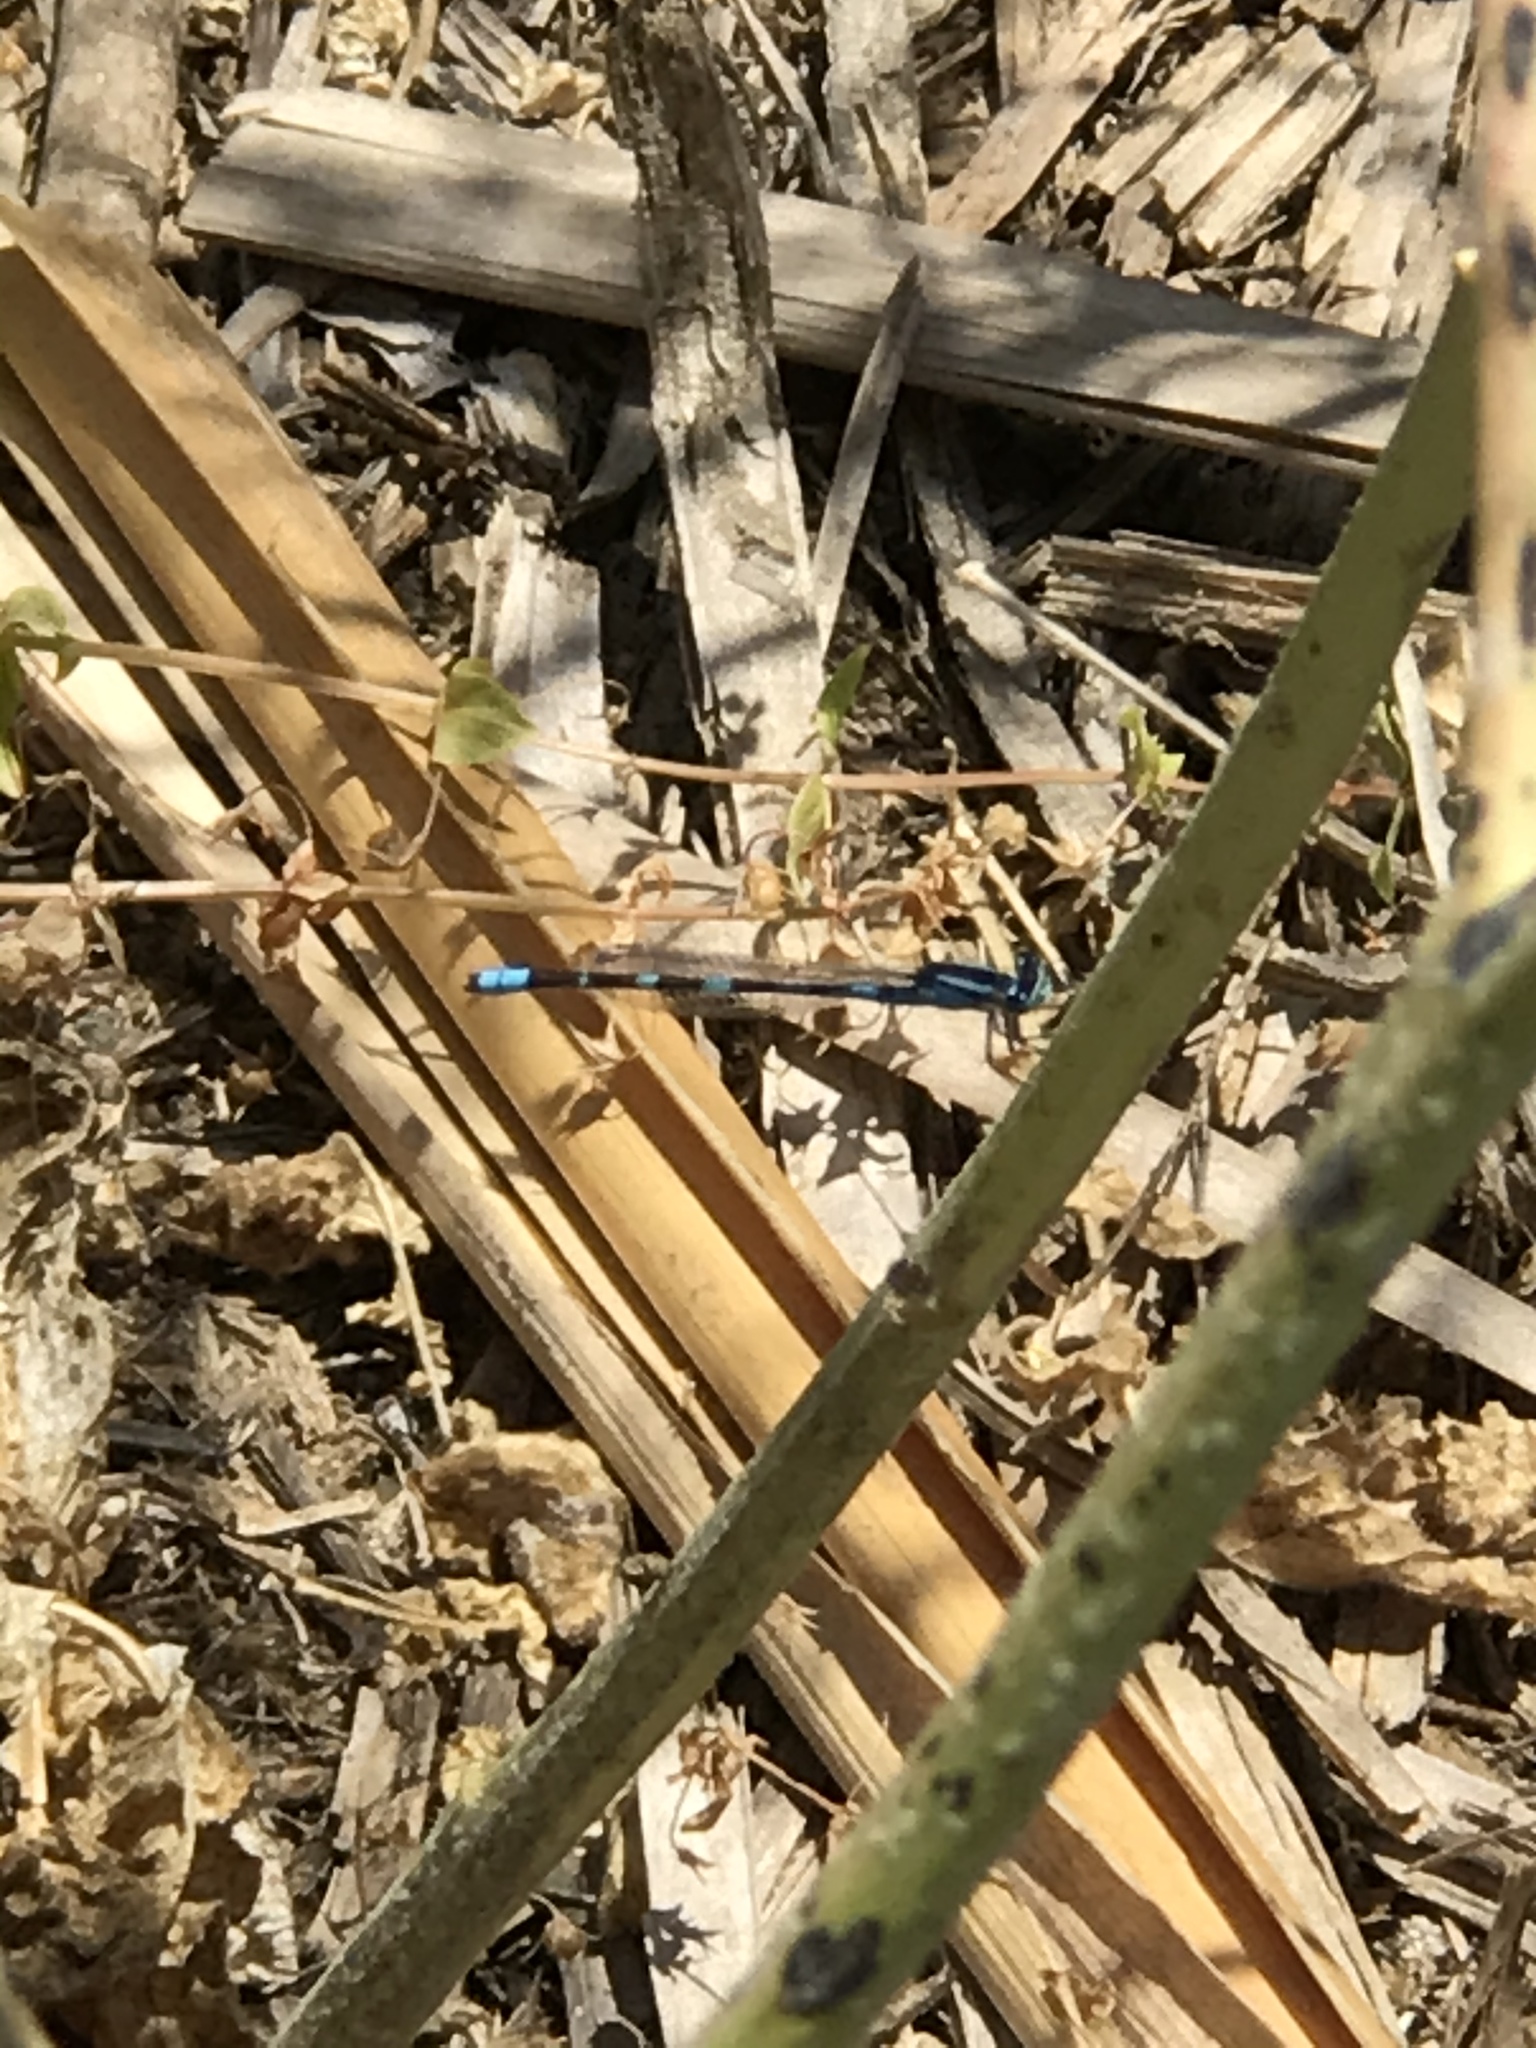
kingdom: Animalia
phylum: Arthropoda
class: Insecta
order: Odonata
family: Coenagrionidae
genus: Ischnura
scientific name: Ischnura cervula
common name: Pacific forktail
